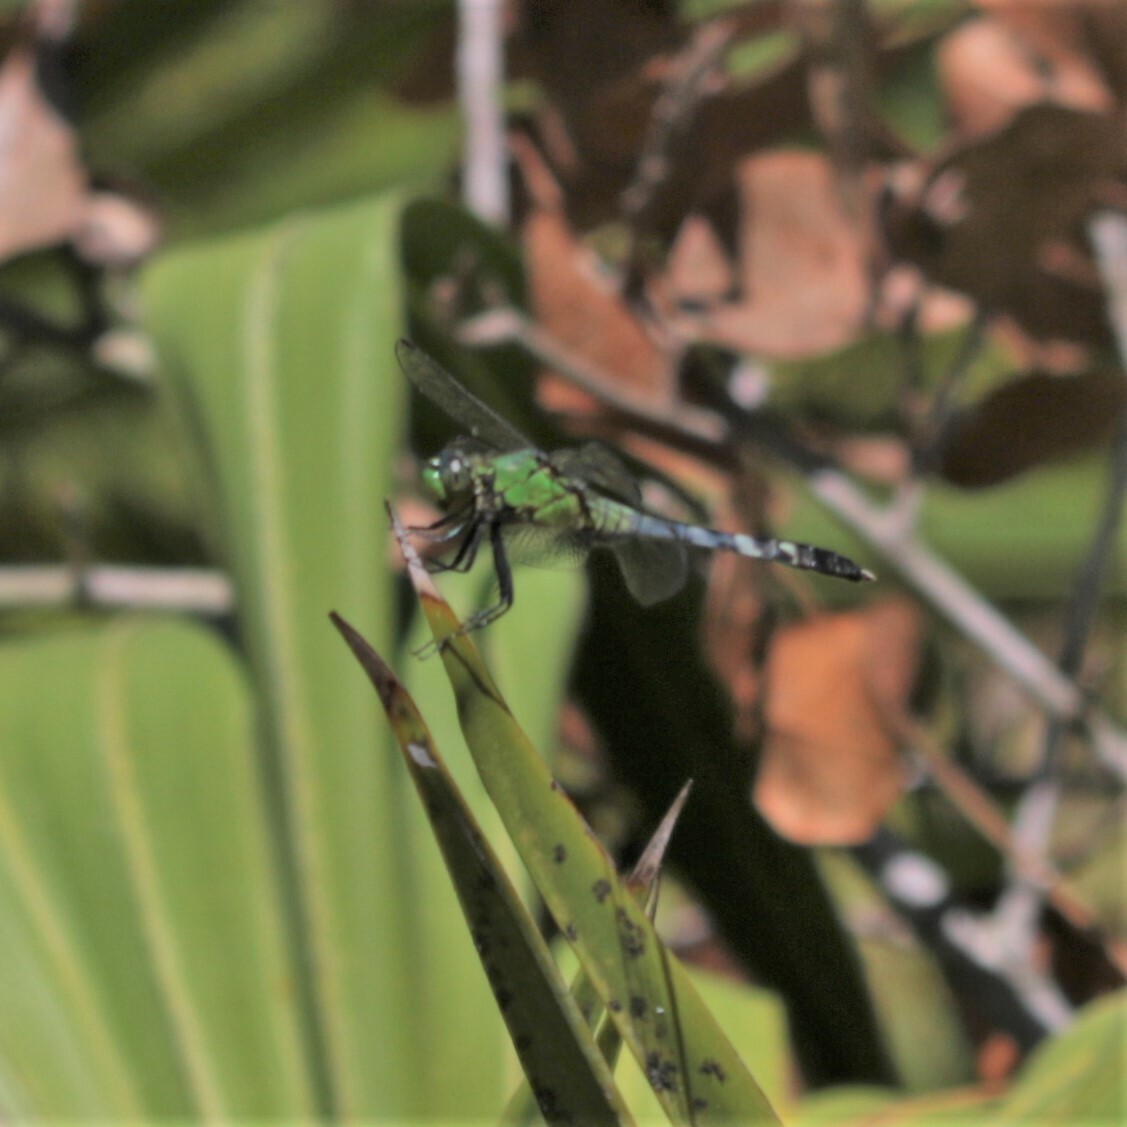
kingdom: Animalia
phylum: Arthropoda
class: Insecta
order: Odonata
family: Libellulidae
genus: Erythemis
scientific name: Erythemis simplicicollis
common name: Eastern pondhawk
